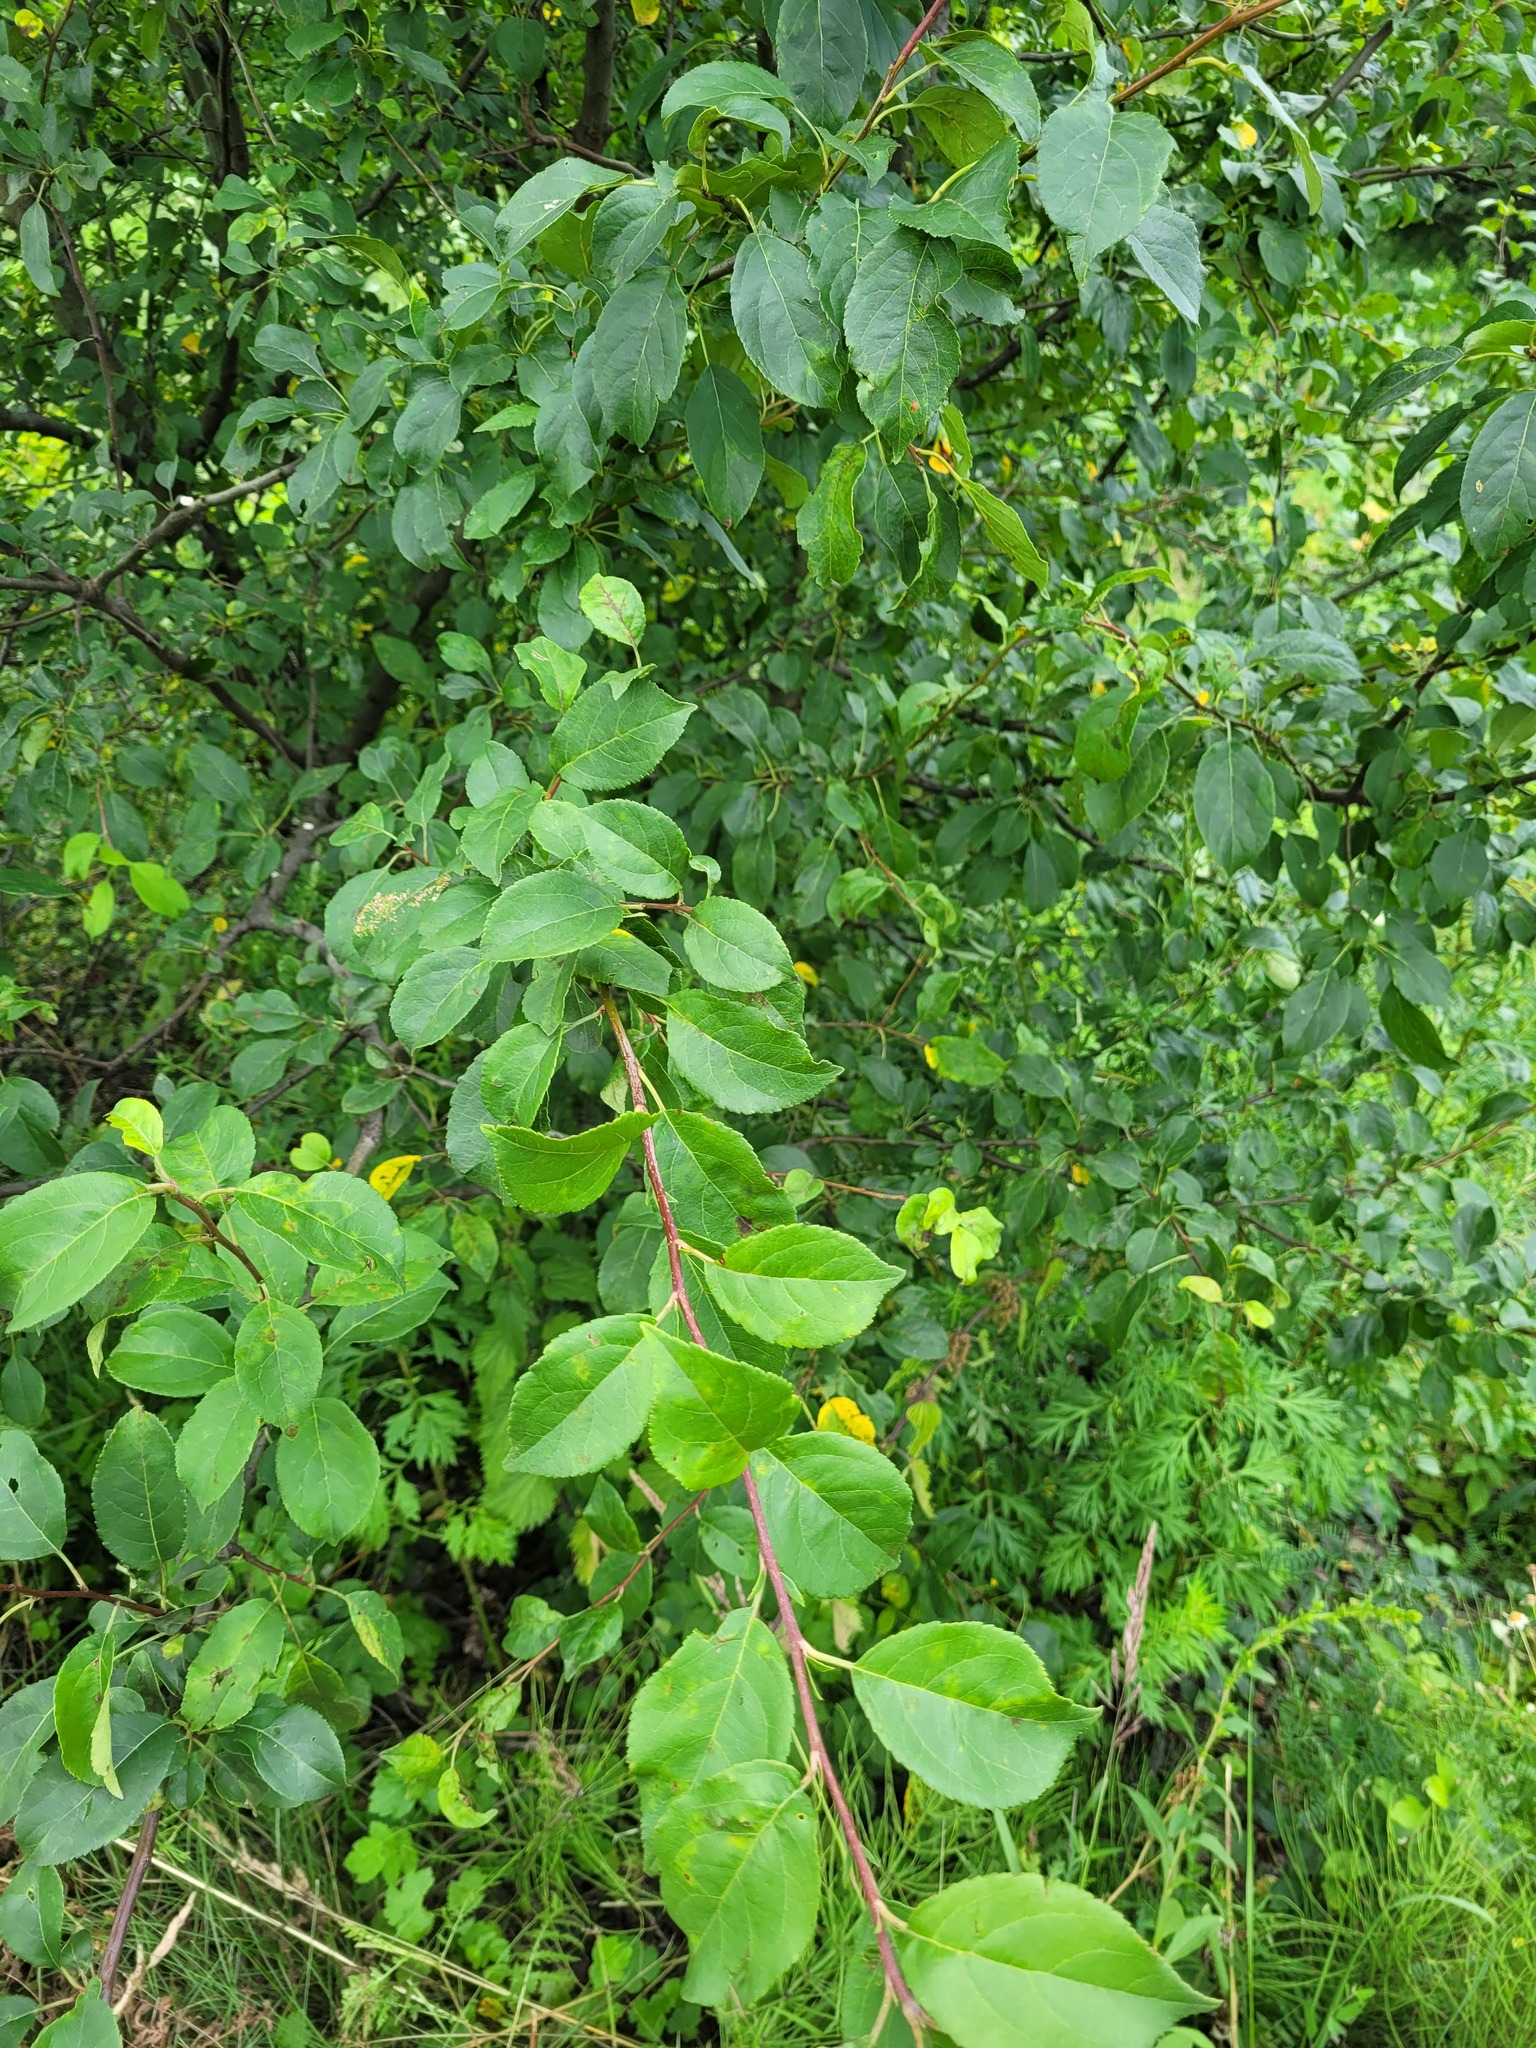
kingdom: Plantae
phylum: Tracheophyta
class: Magnoliopsida
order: Rosales
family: Rosaceae
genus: Malus
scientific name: Malus baccata
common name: Siberian crab
